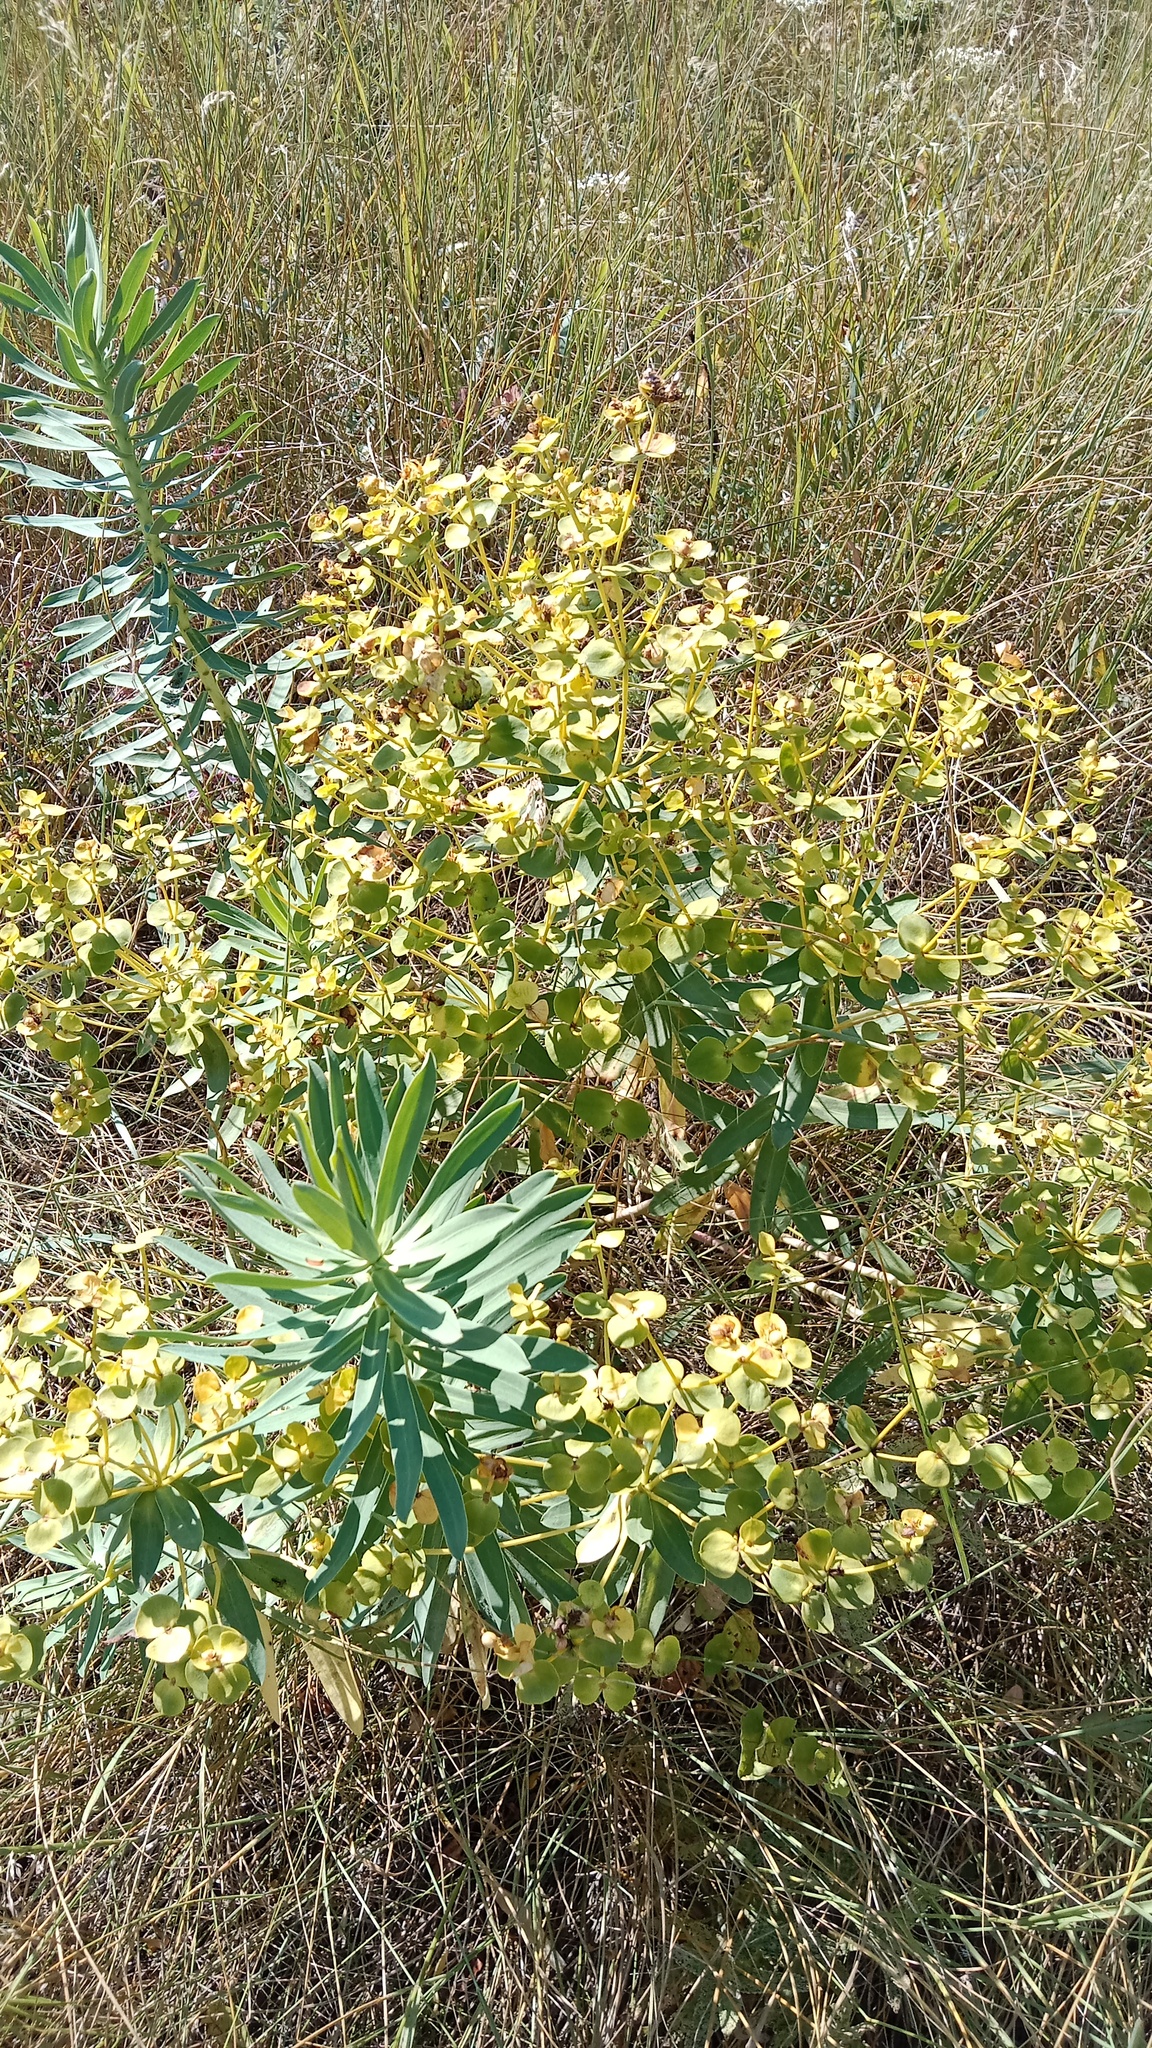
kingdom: Plantae
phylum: Tracheophyta
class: Magnoliopsida
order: Malpighiales
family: Euphorbiaceae
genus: Euphorbia
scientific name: Euphorbia stepposa
